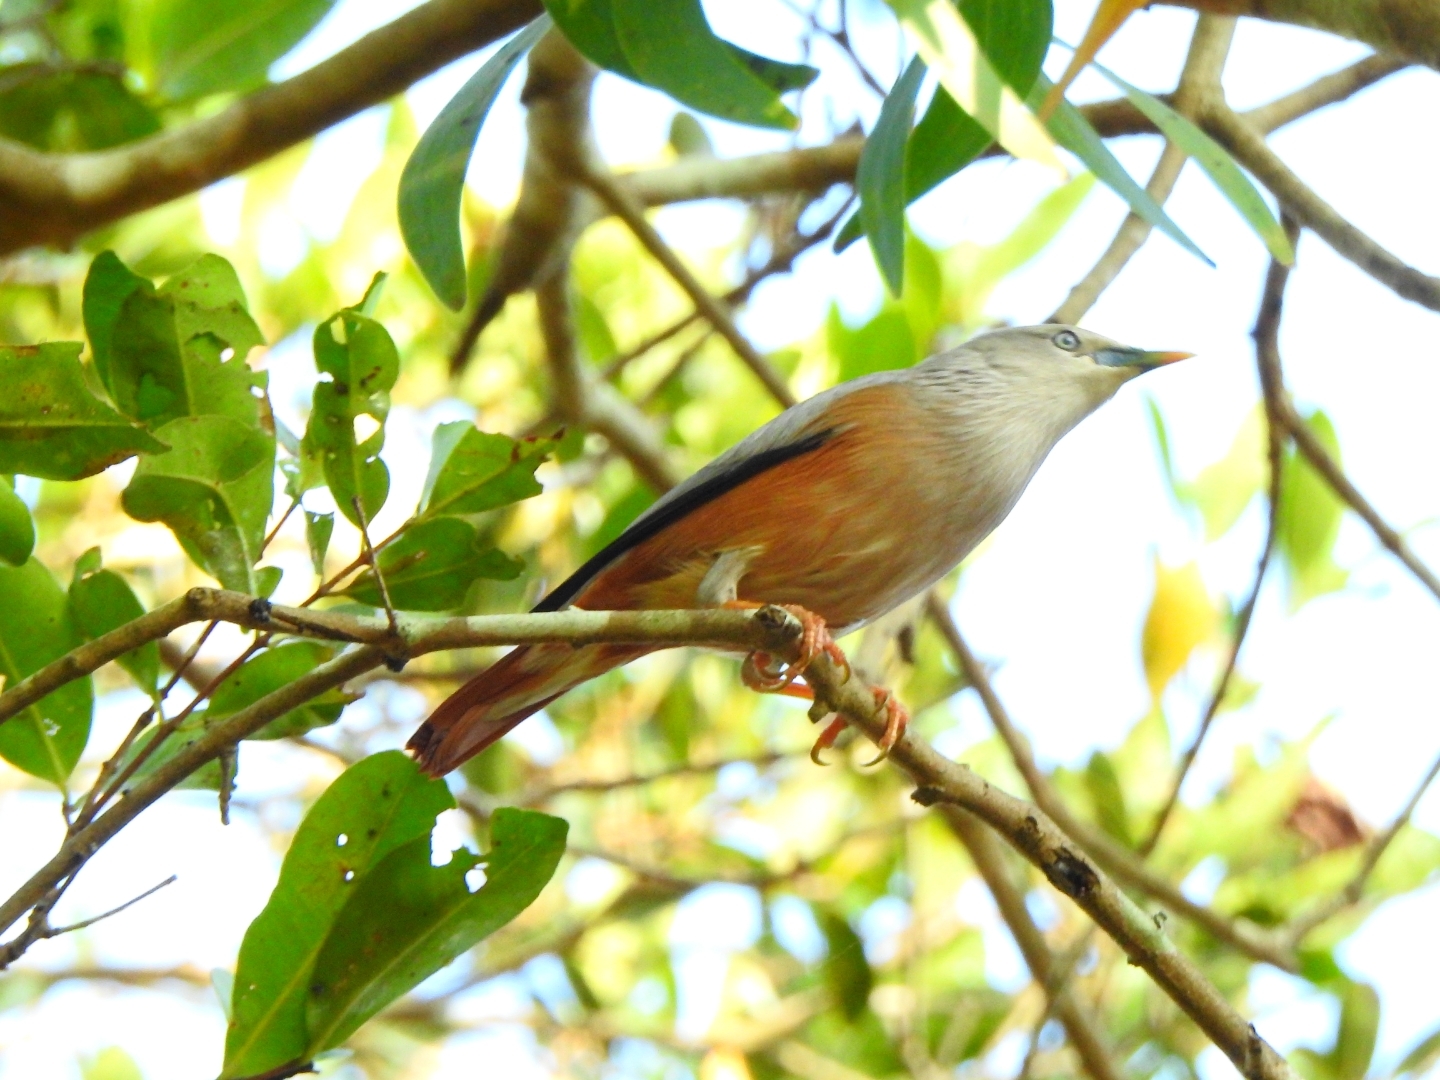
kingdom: Animalia
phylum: Chordata
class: Aves
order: Passeriformes
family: Sturnidae
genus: Sturnia
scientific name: Sturnia blythii
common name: Malabar starling
